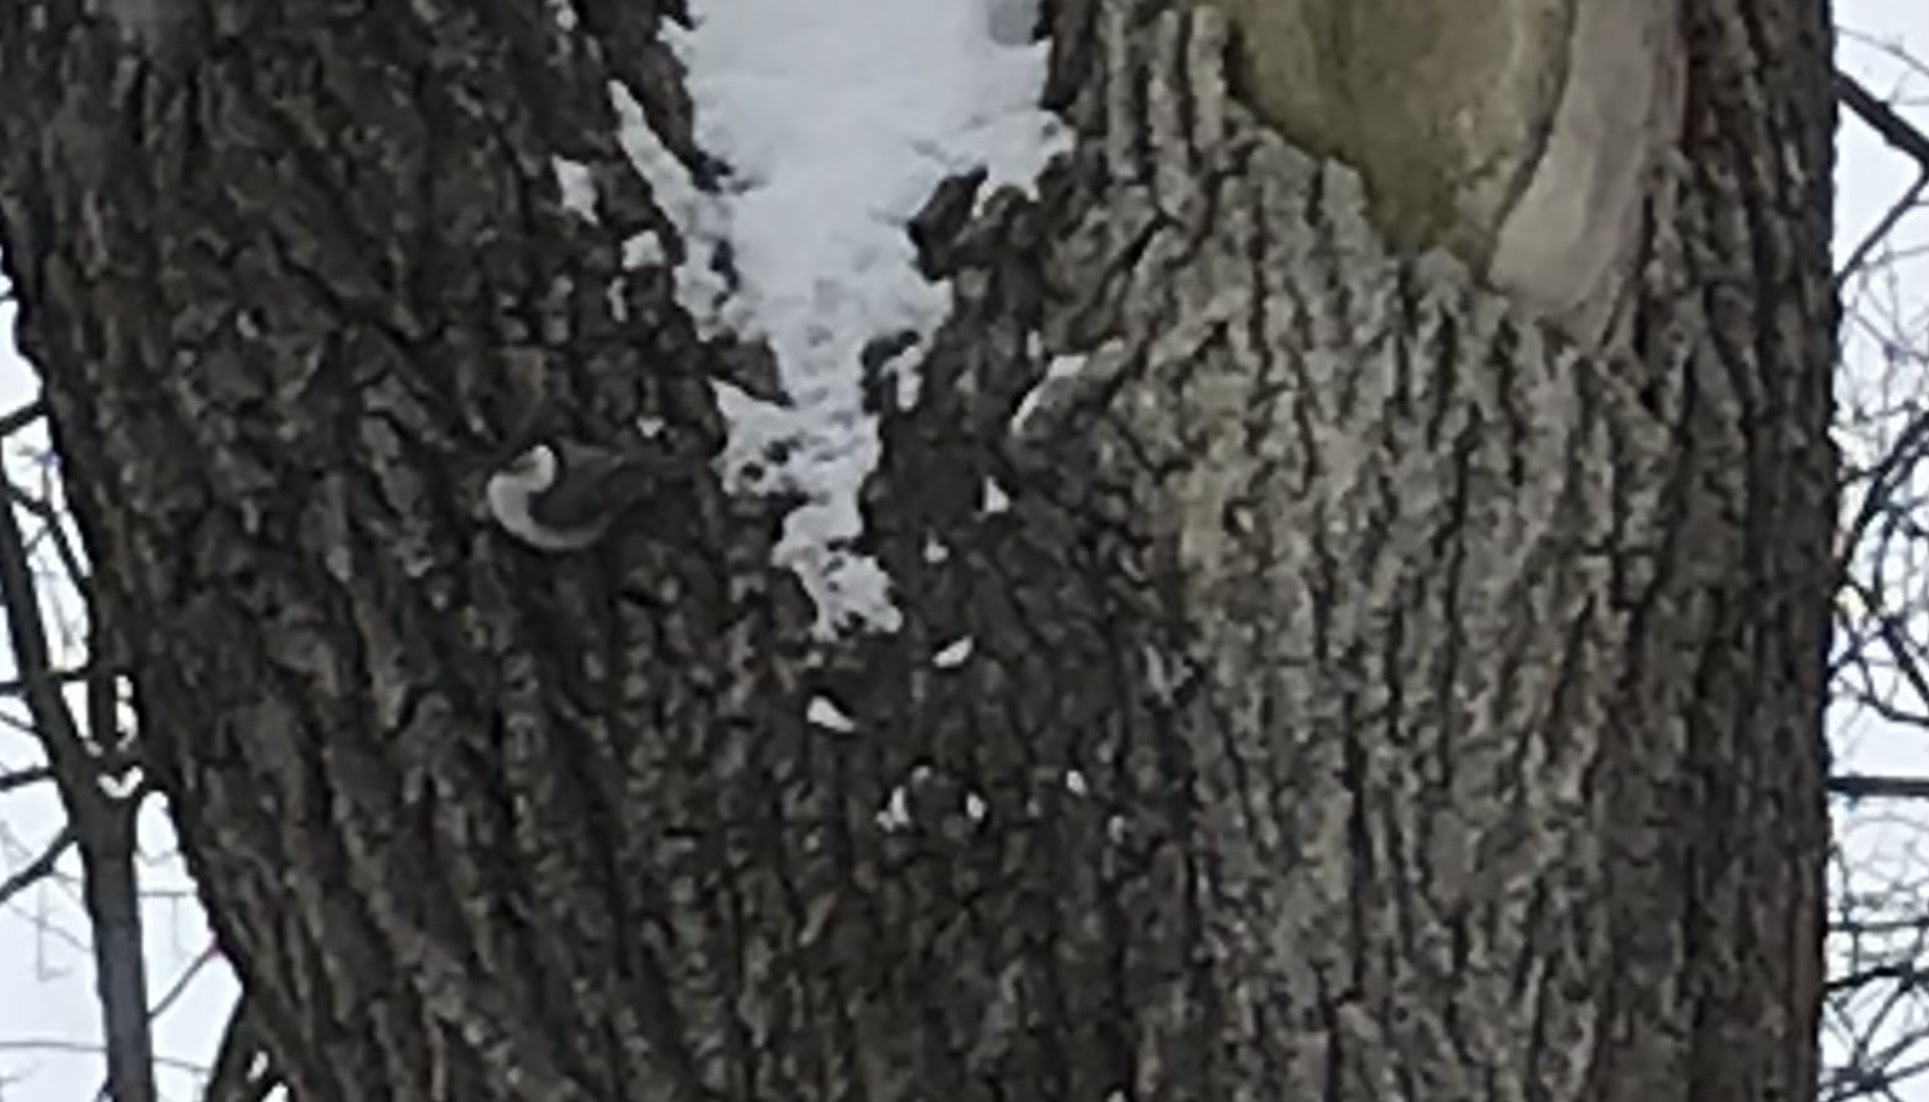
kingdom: Animalia
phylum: Chordata
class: Aves
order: Passeriformes
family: Sittidae
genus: Sitta
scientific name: Sitta carolinensis
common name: White-breasted nuthatch
